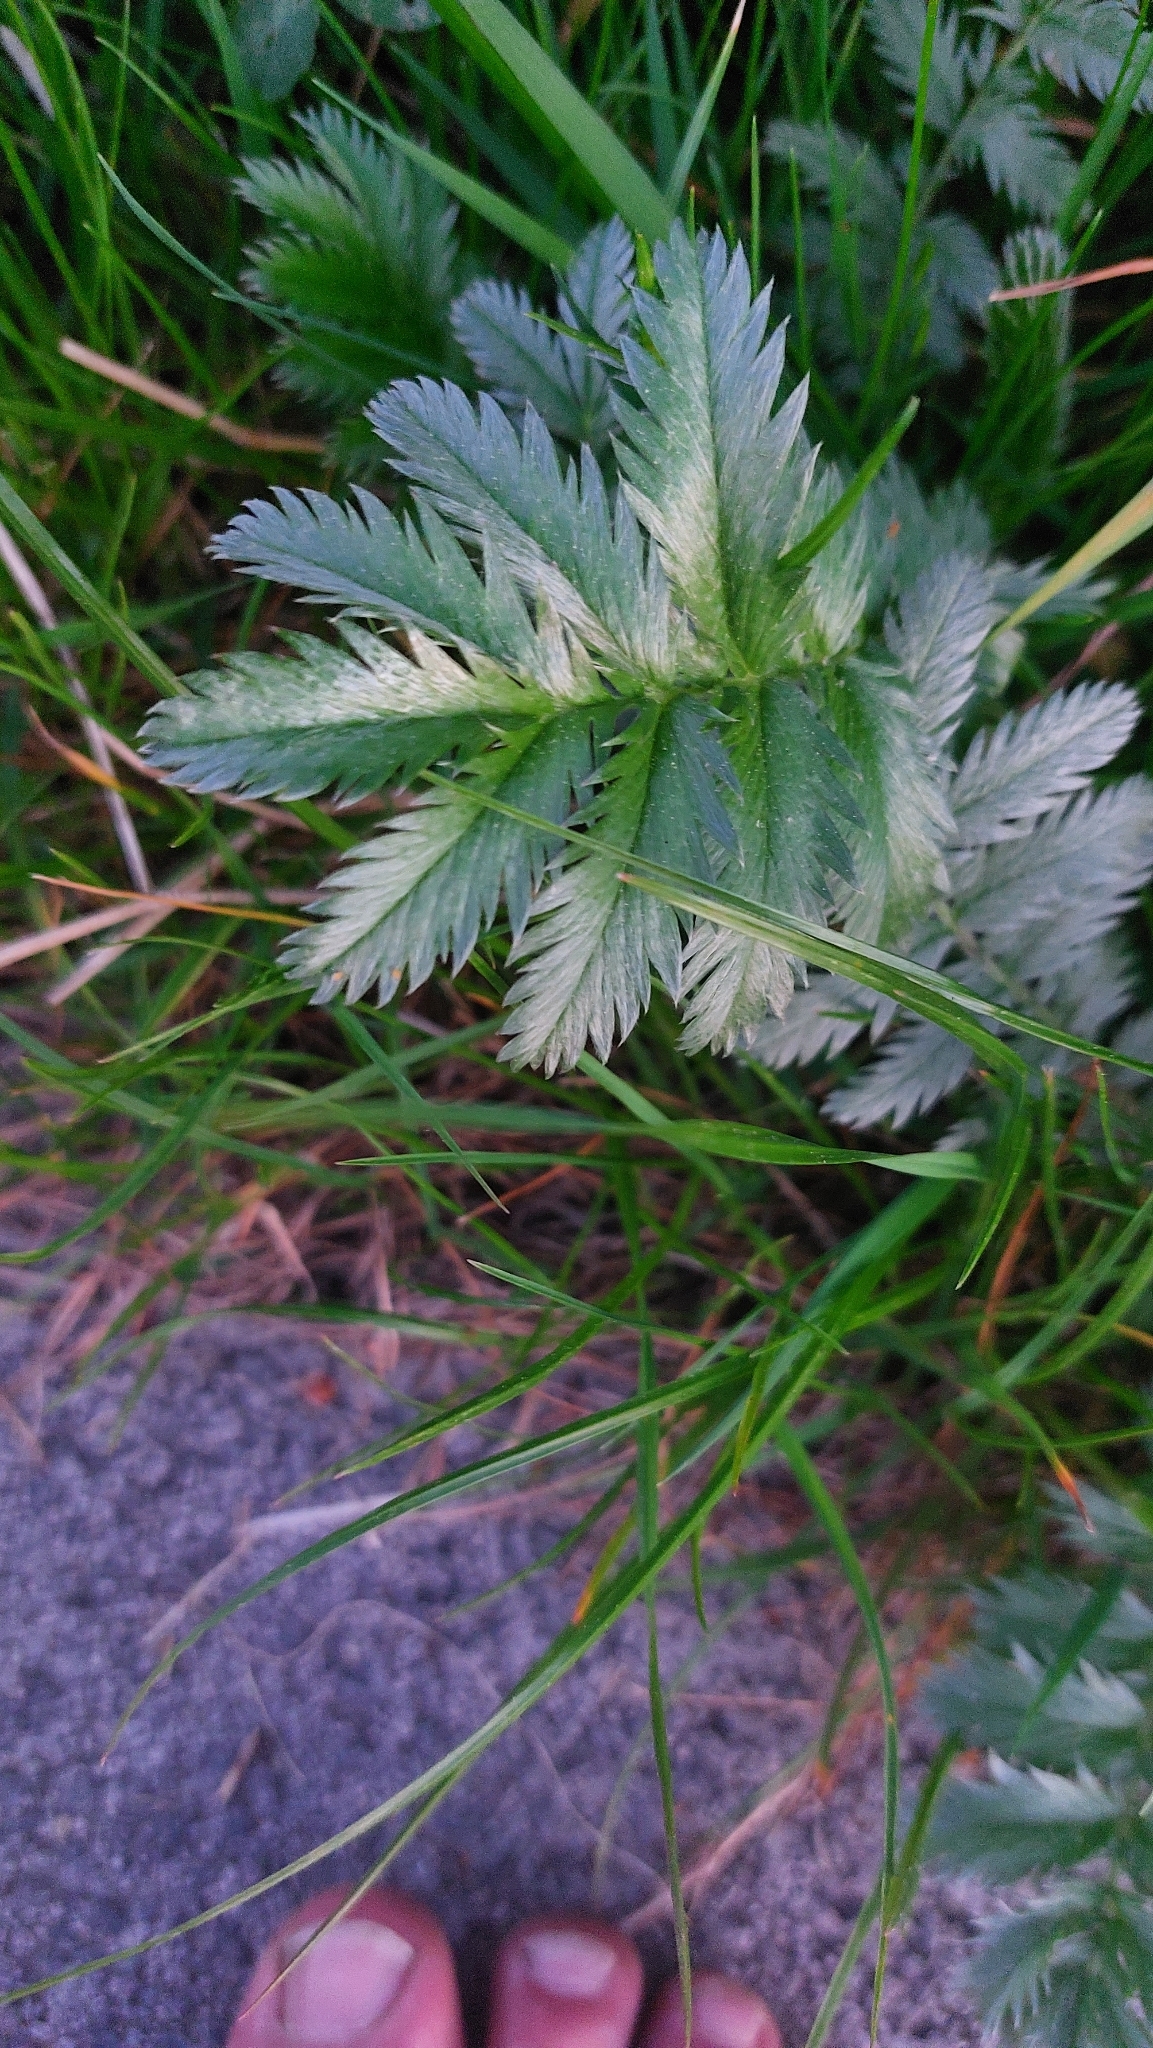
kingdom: Plantae
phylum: Tracheophyta
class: Magnoliopsida
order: Rosales
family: Rosaceae
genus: Argentina
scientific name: Argentina anserina
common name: Common silverweed
